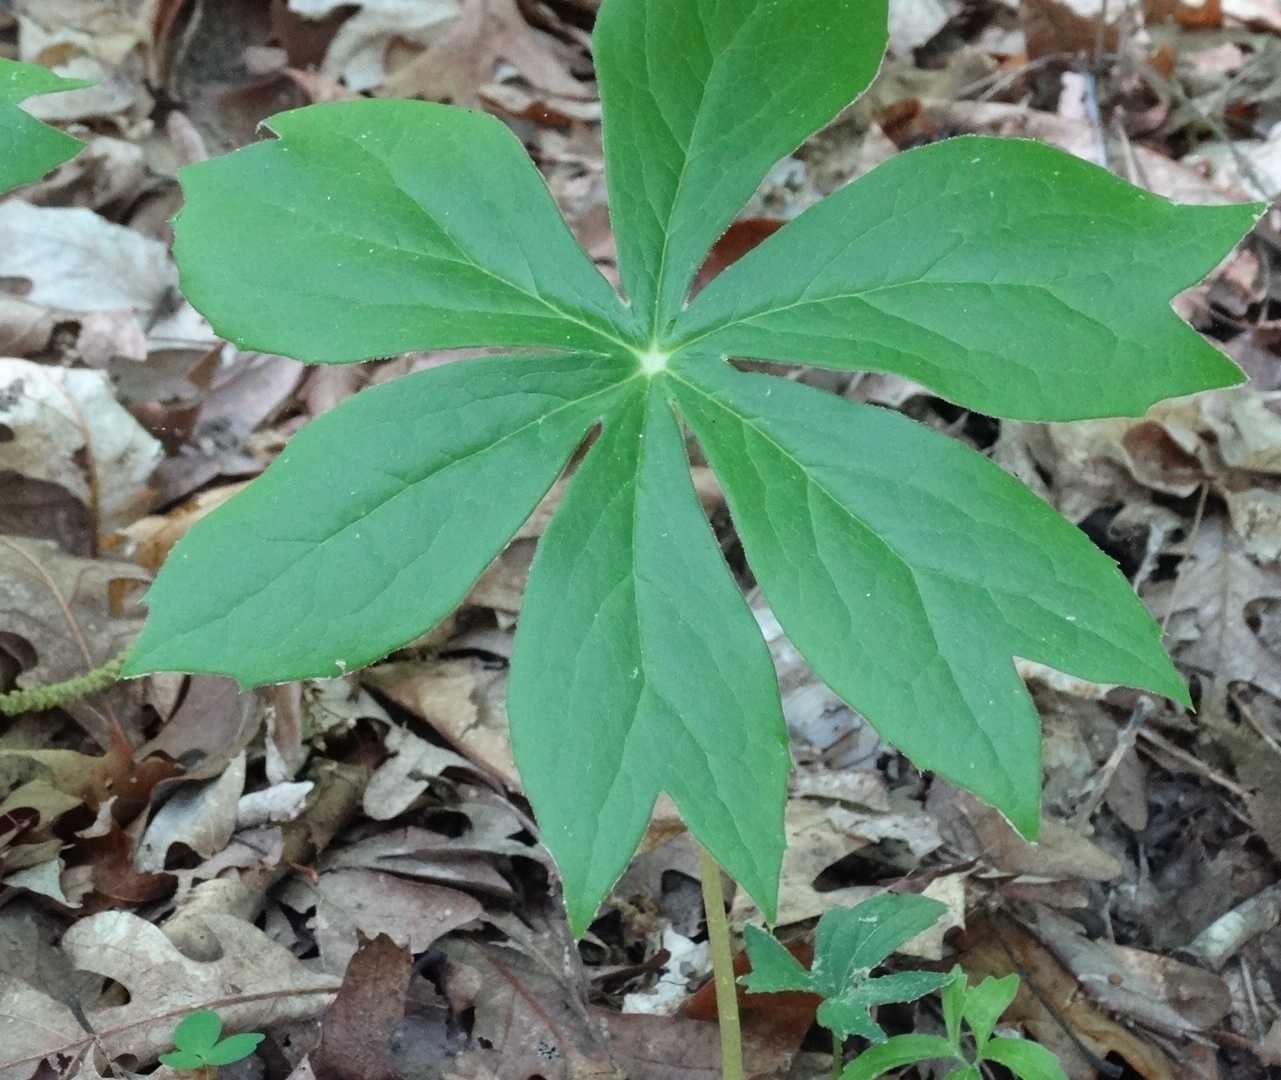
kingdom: Plantae
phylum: Tracheophyta
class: Magnoliopsida
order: Ranunculales
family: Berberidaceae
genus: Podophyllum
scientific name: Podophyllum peltatum
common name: Wild mandrake
